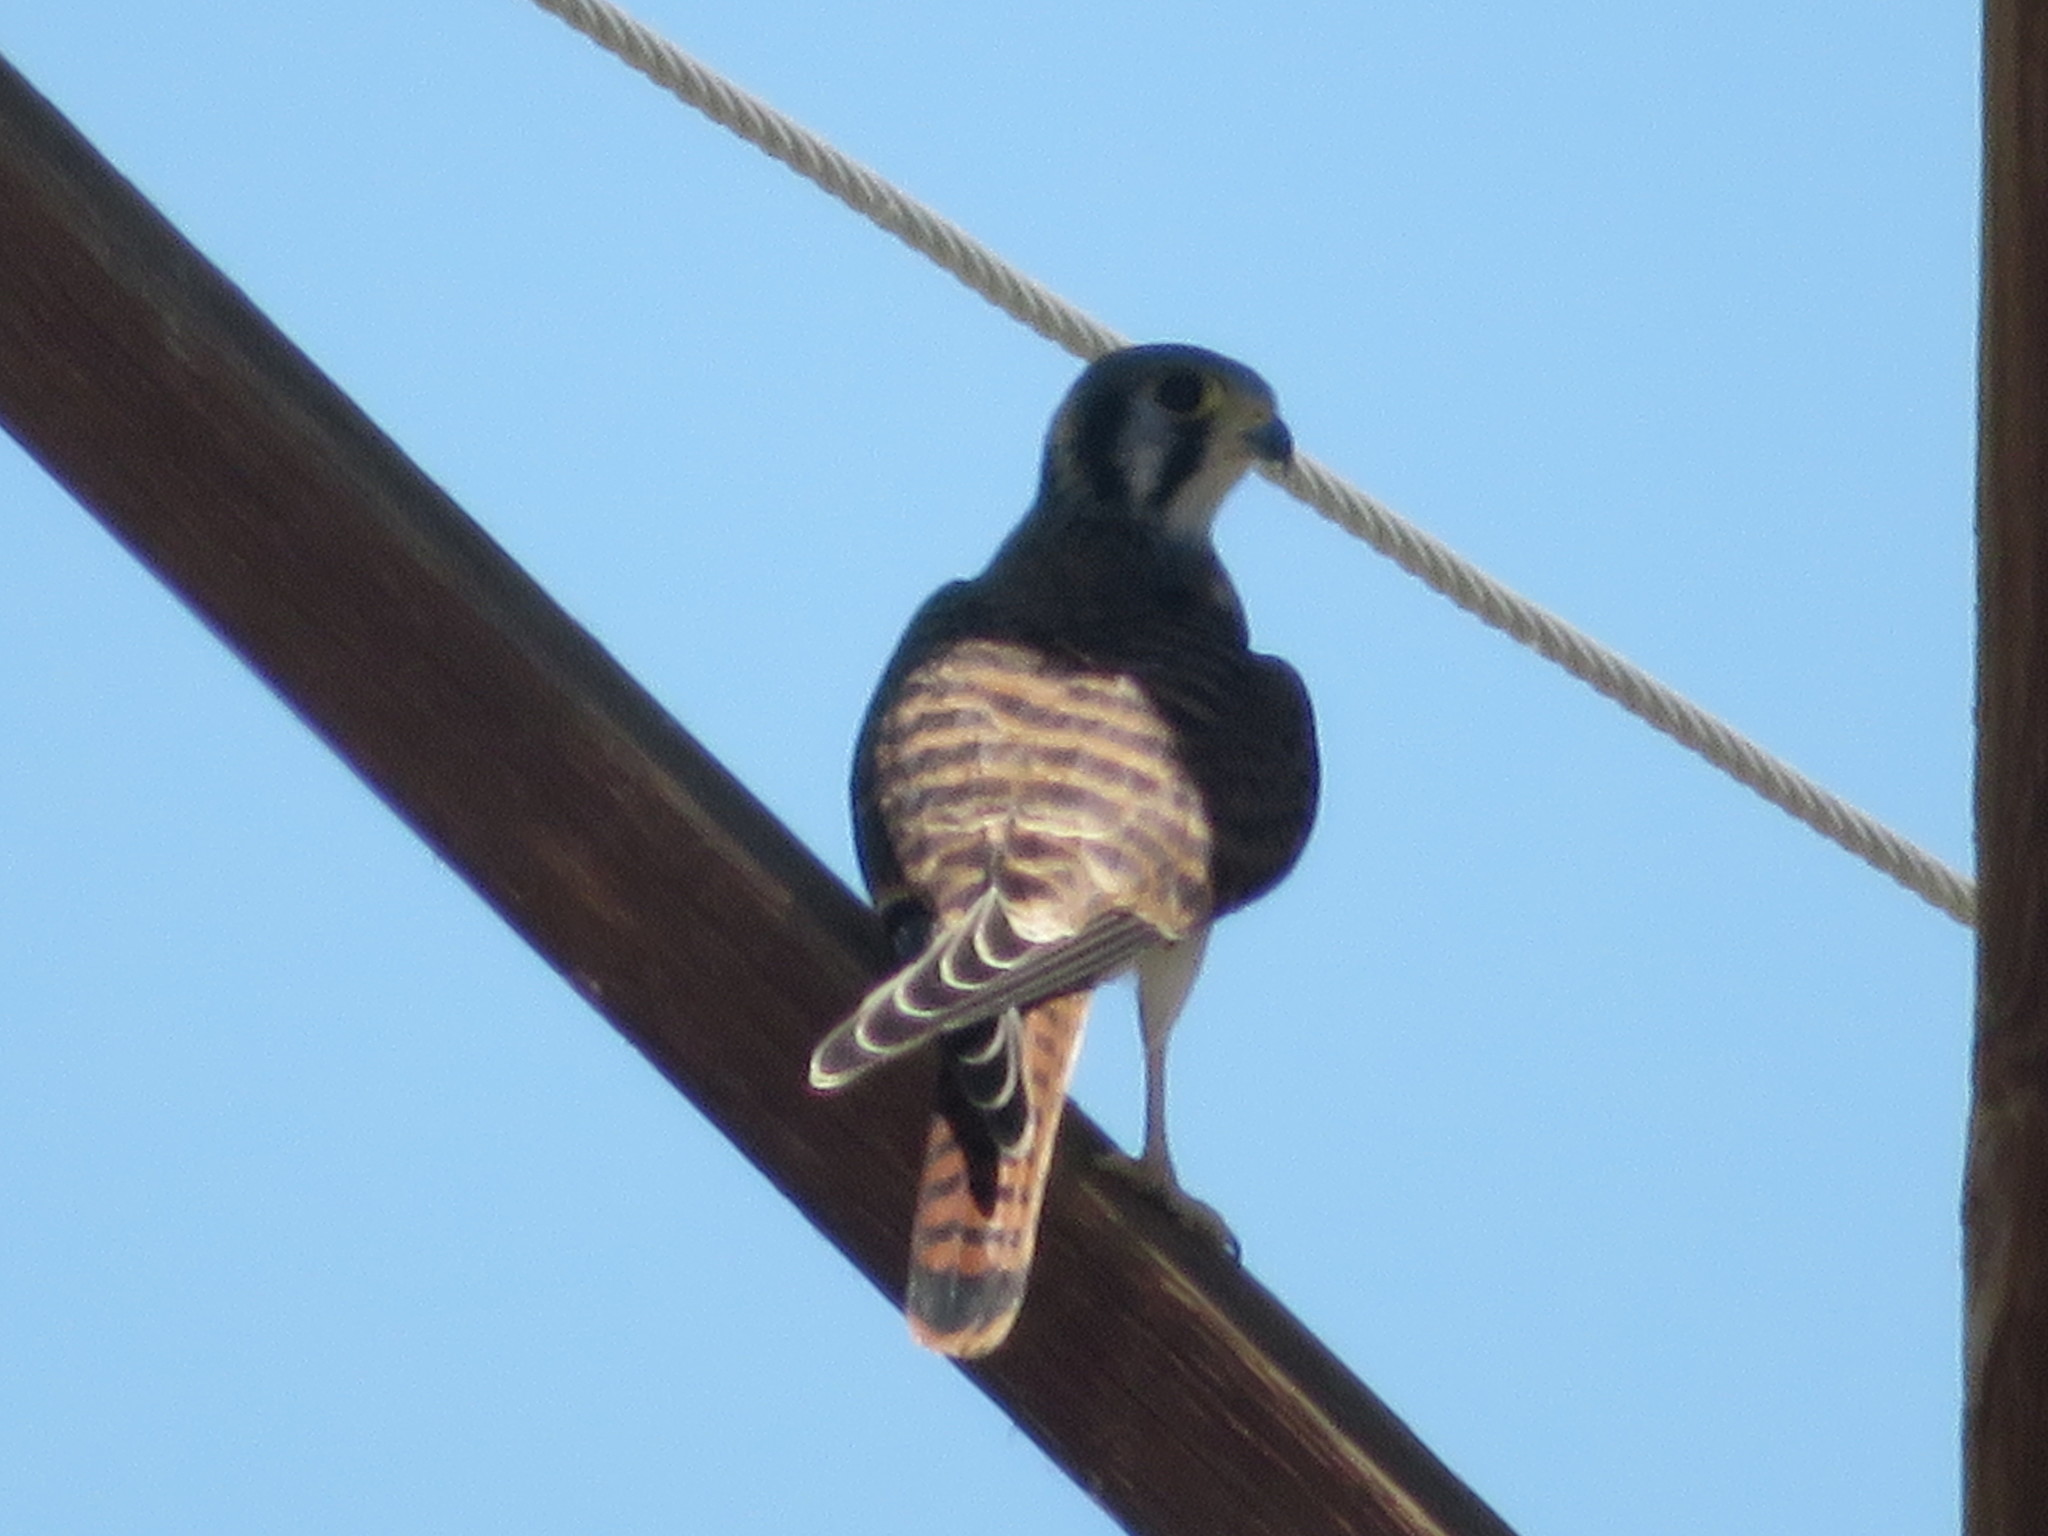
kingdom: Animalia
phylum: Chordata
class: Aves
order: Falconiformes
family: Falconidae
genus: Falco
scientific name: Falco sparverius
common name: American kestrel
